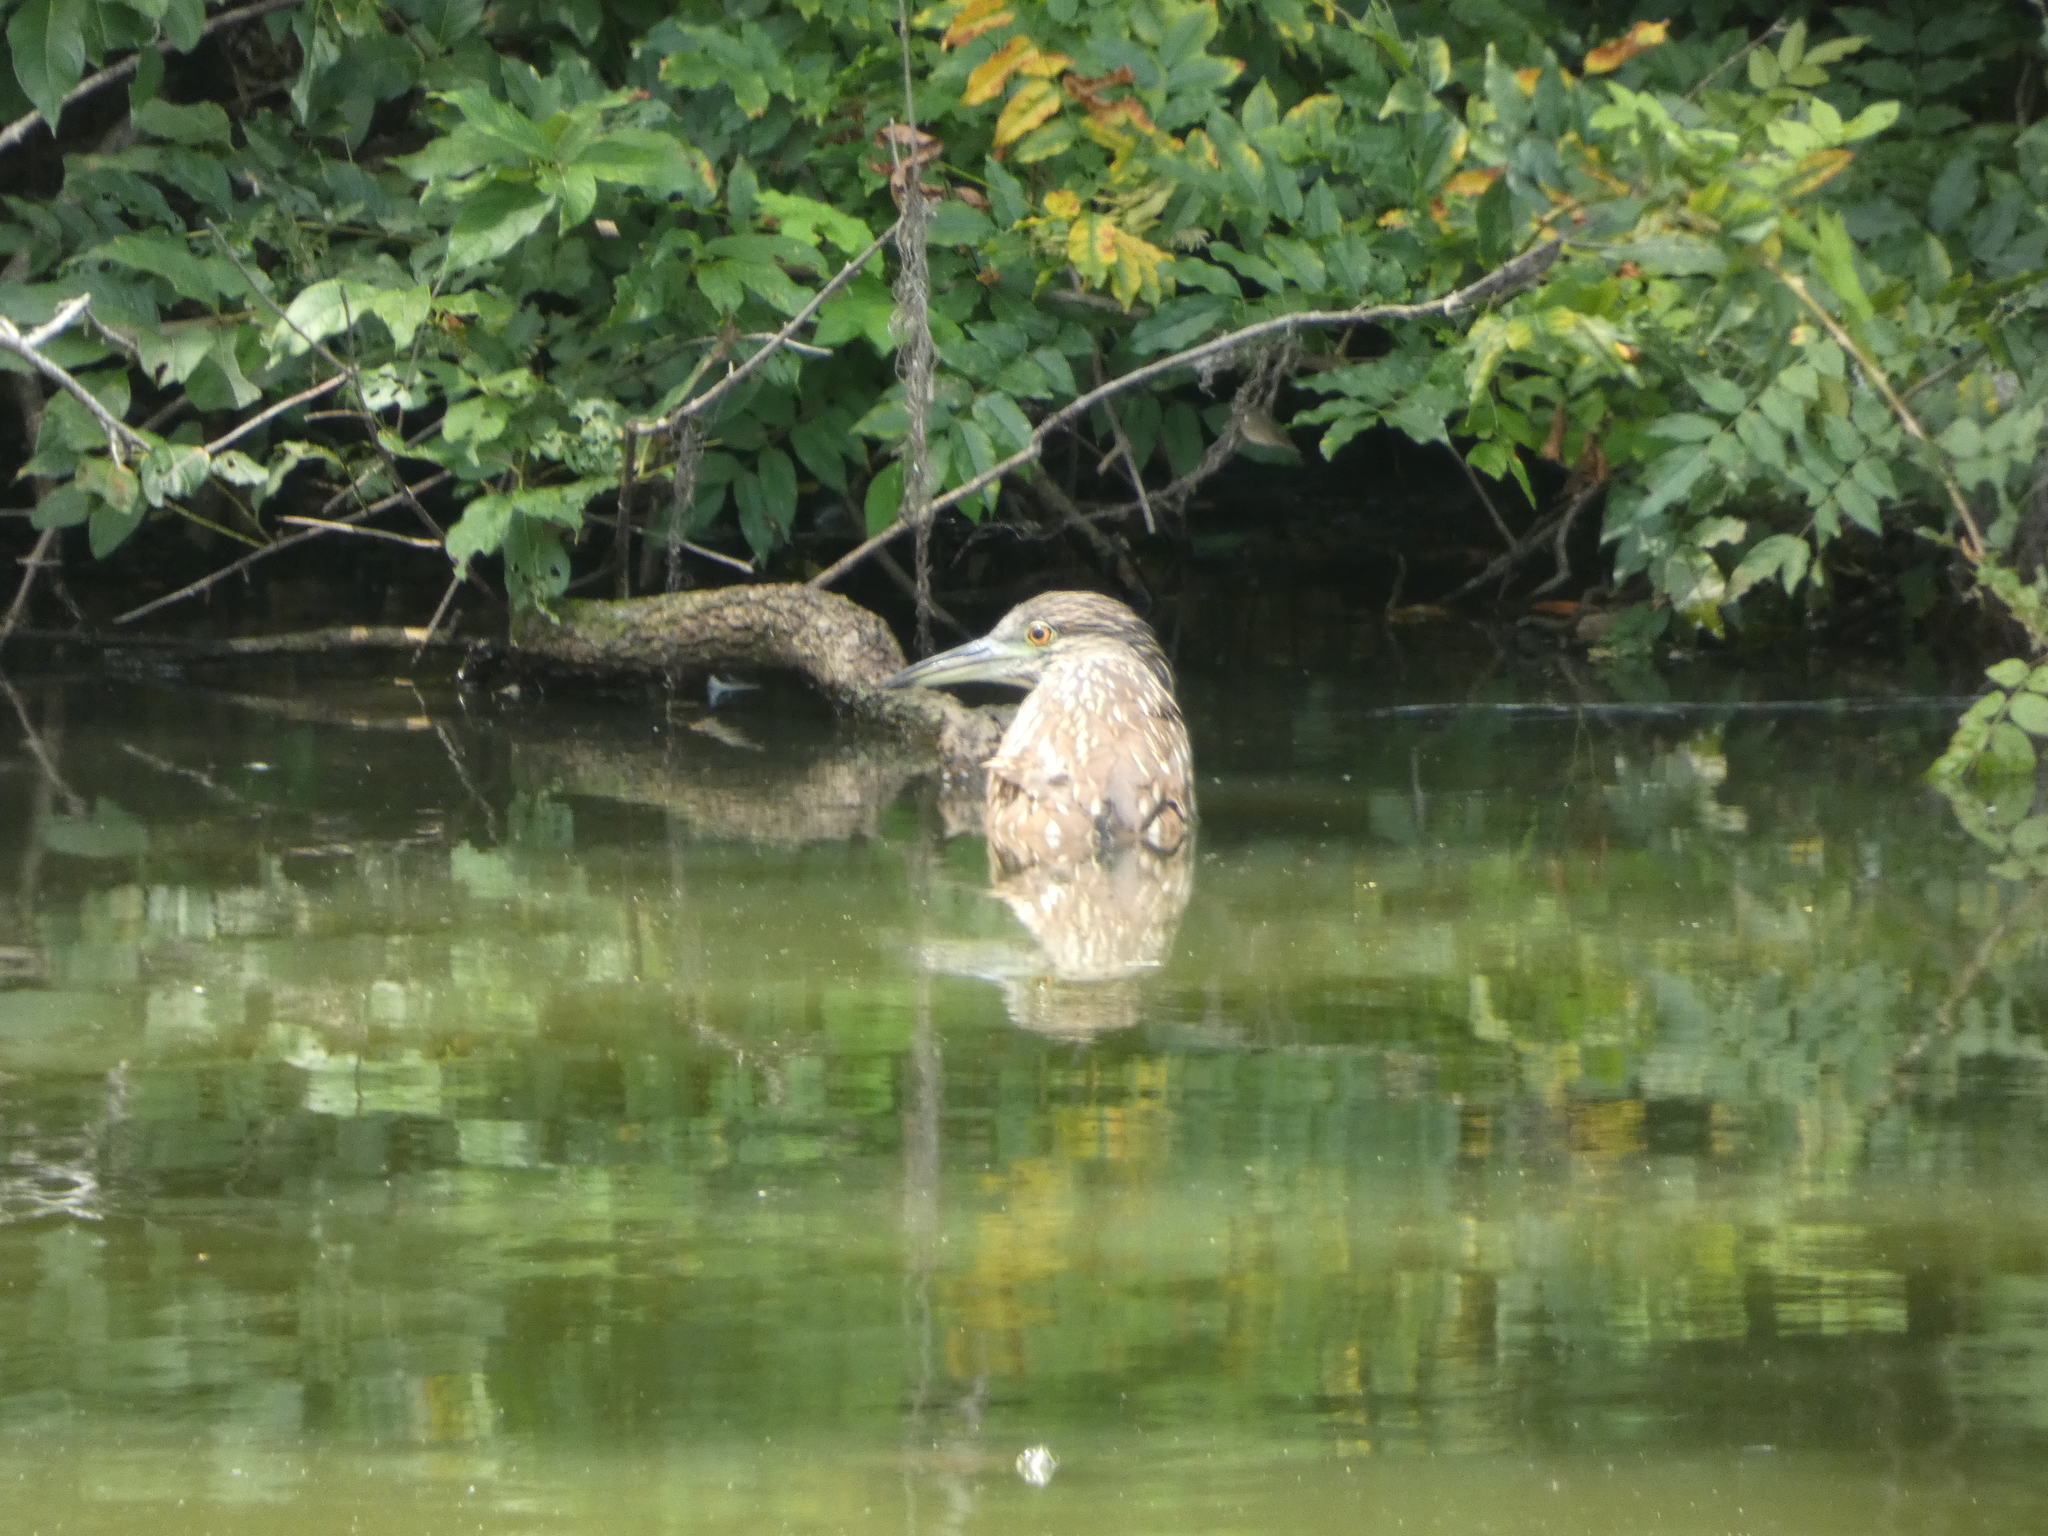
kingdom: Animalia
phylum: Chordata
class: Aves
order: Pelecaniformes
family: Ardeidae
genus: Nycticorax
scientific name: Nycticorax nycticorax
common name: Black-crowned night heron
